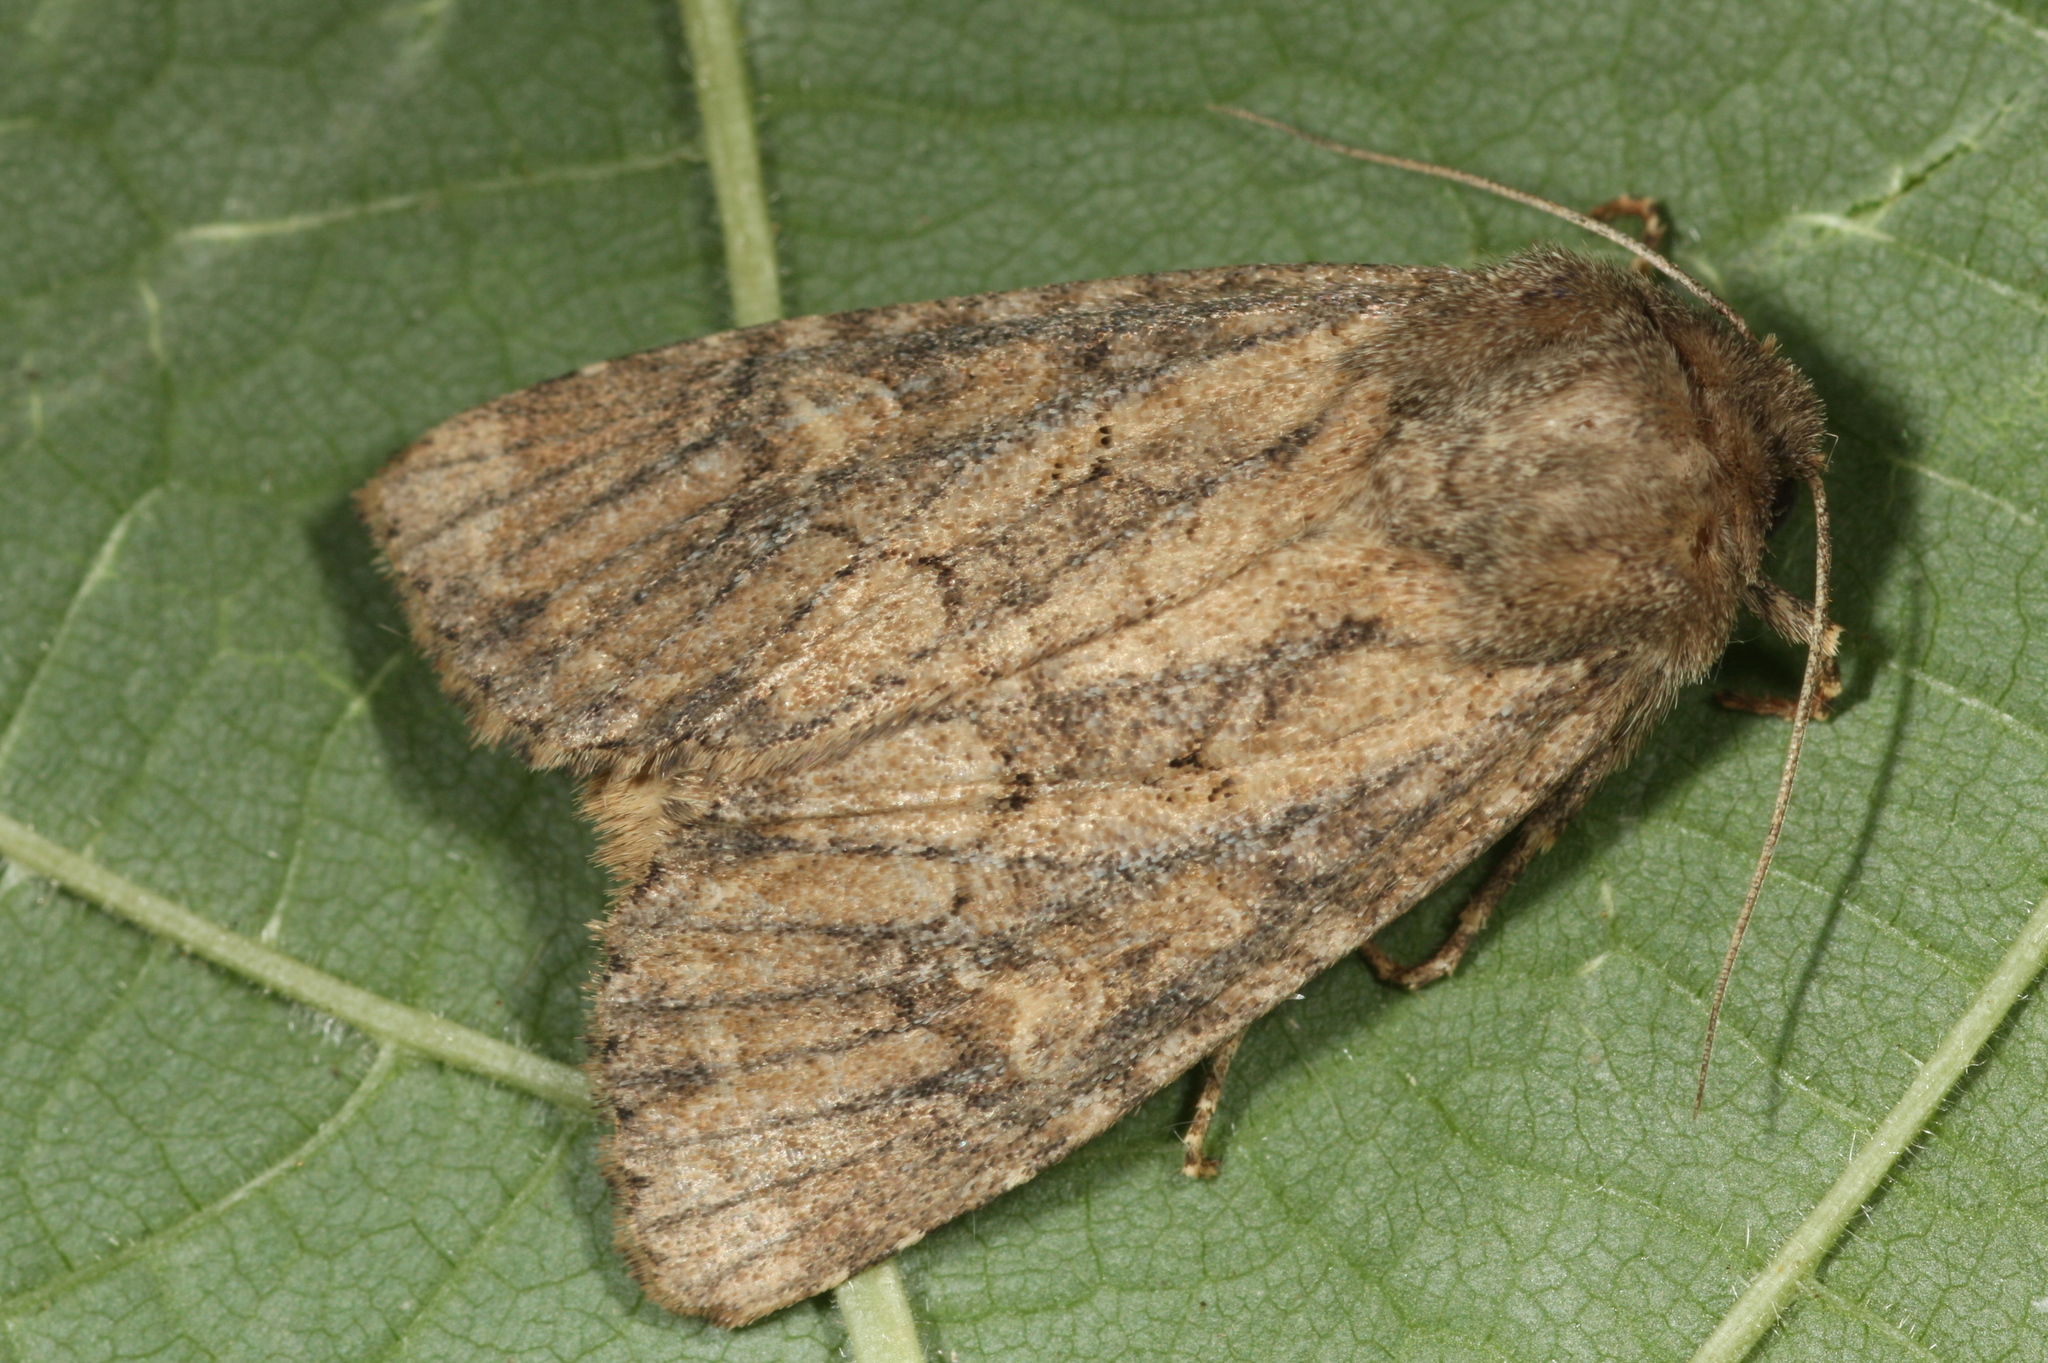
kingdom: Animalia
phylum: Arthropoda
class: Insecta
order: Lepidoptera
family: Noctuidae
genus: Luperina
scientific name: Luperina testacea
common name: Flounced rustic
